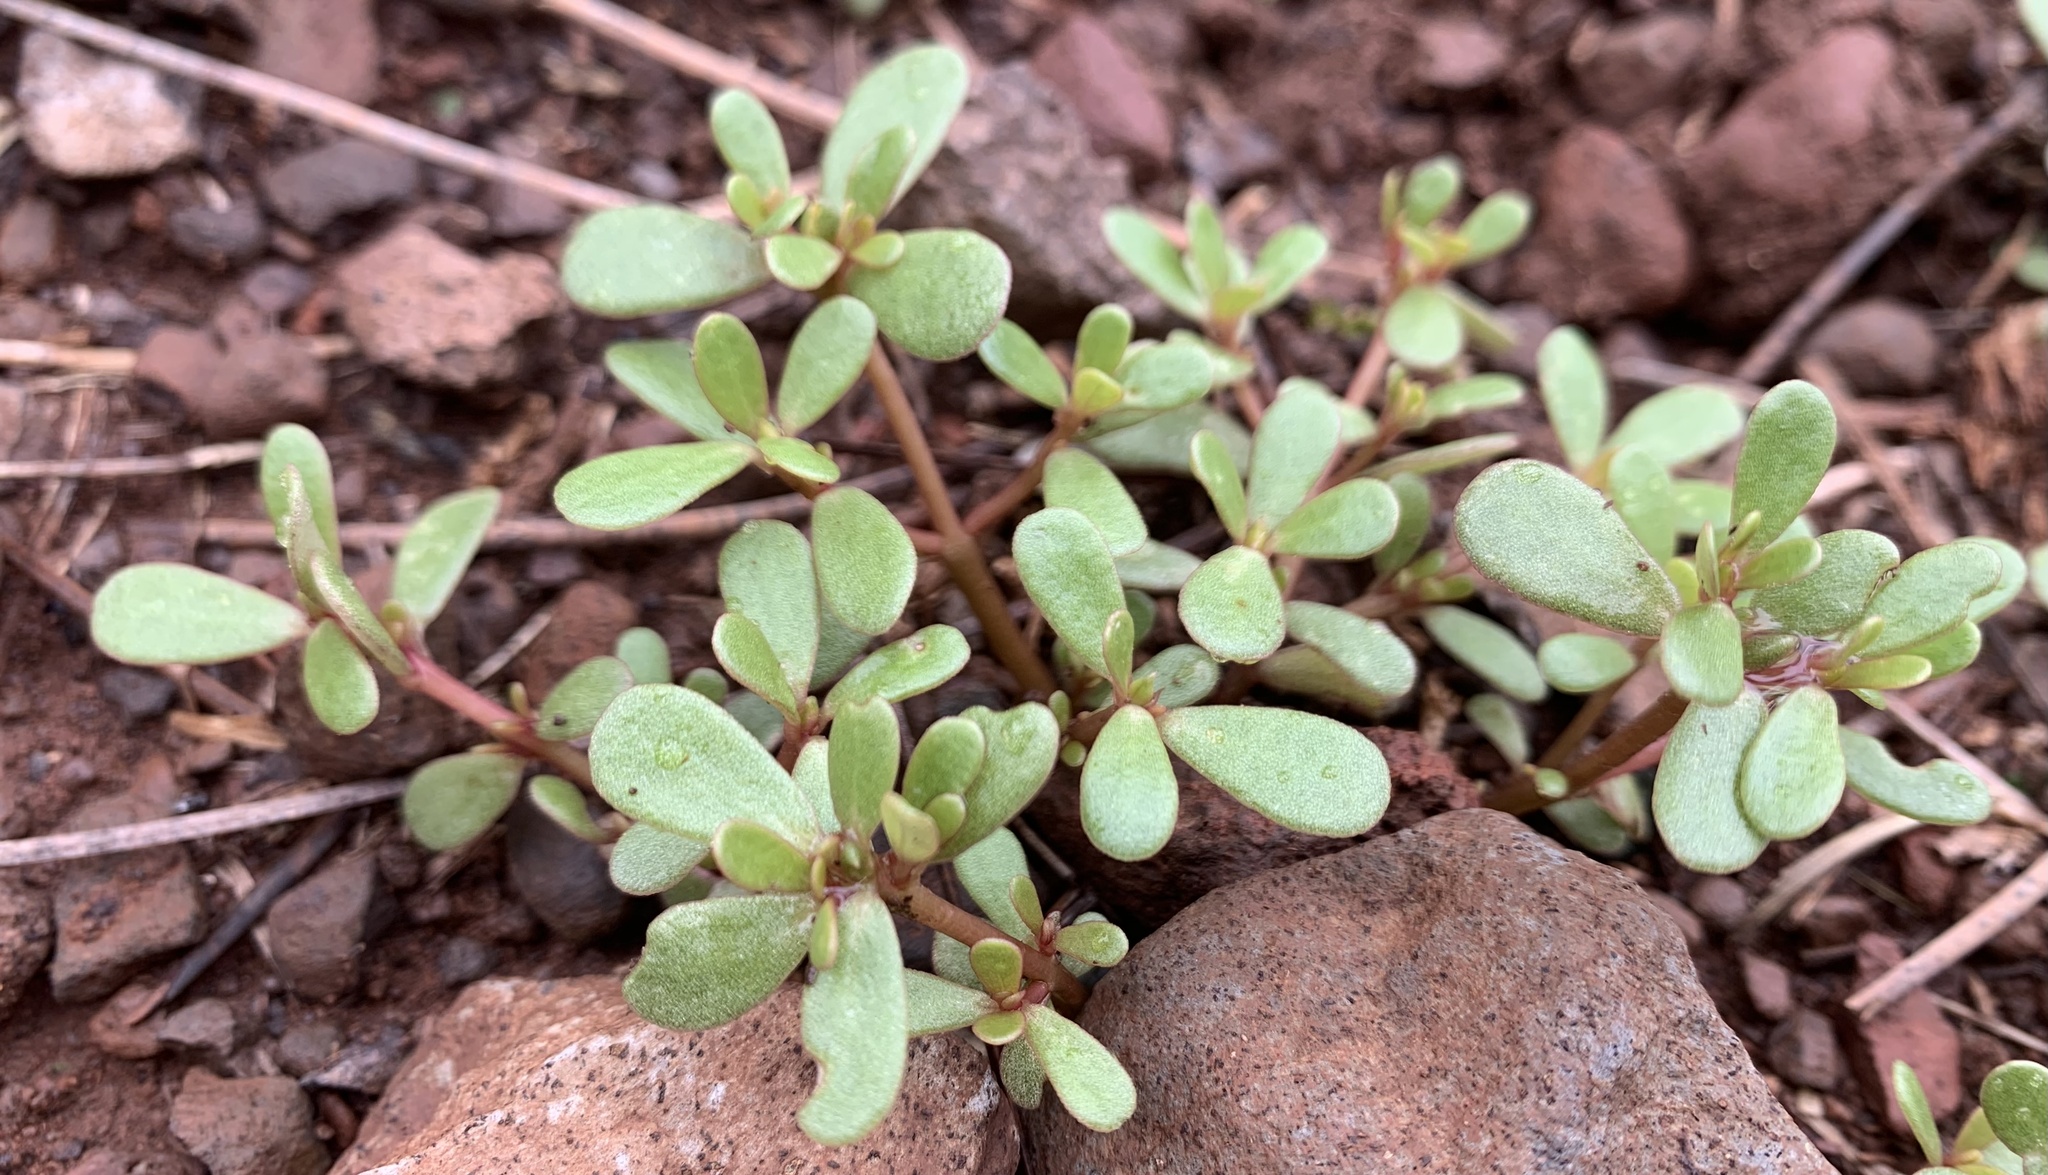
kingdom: Plantae
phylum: Tracheophyta
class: Magnoliopsida
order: Caryophyllales
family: Portulacaceae
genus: Portulaca
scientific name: Portulaca oleracea
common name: Common purslane
